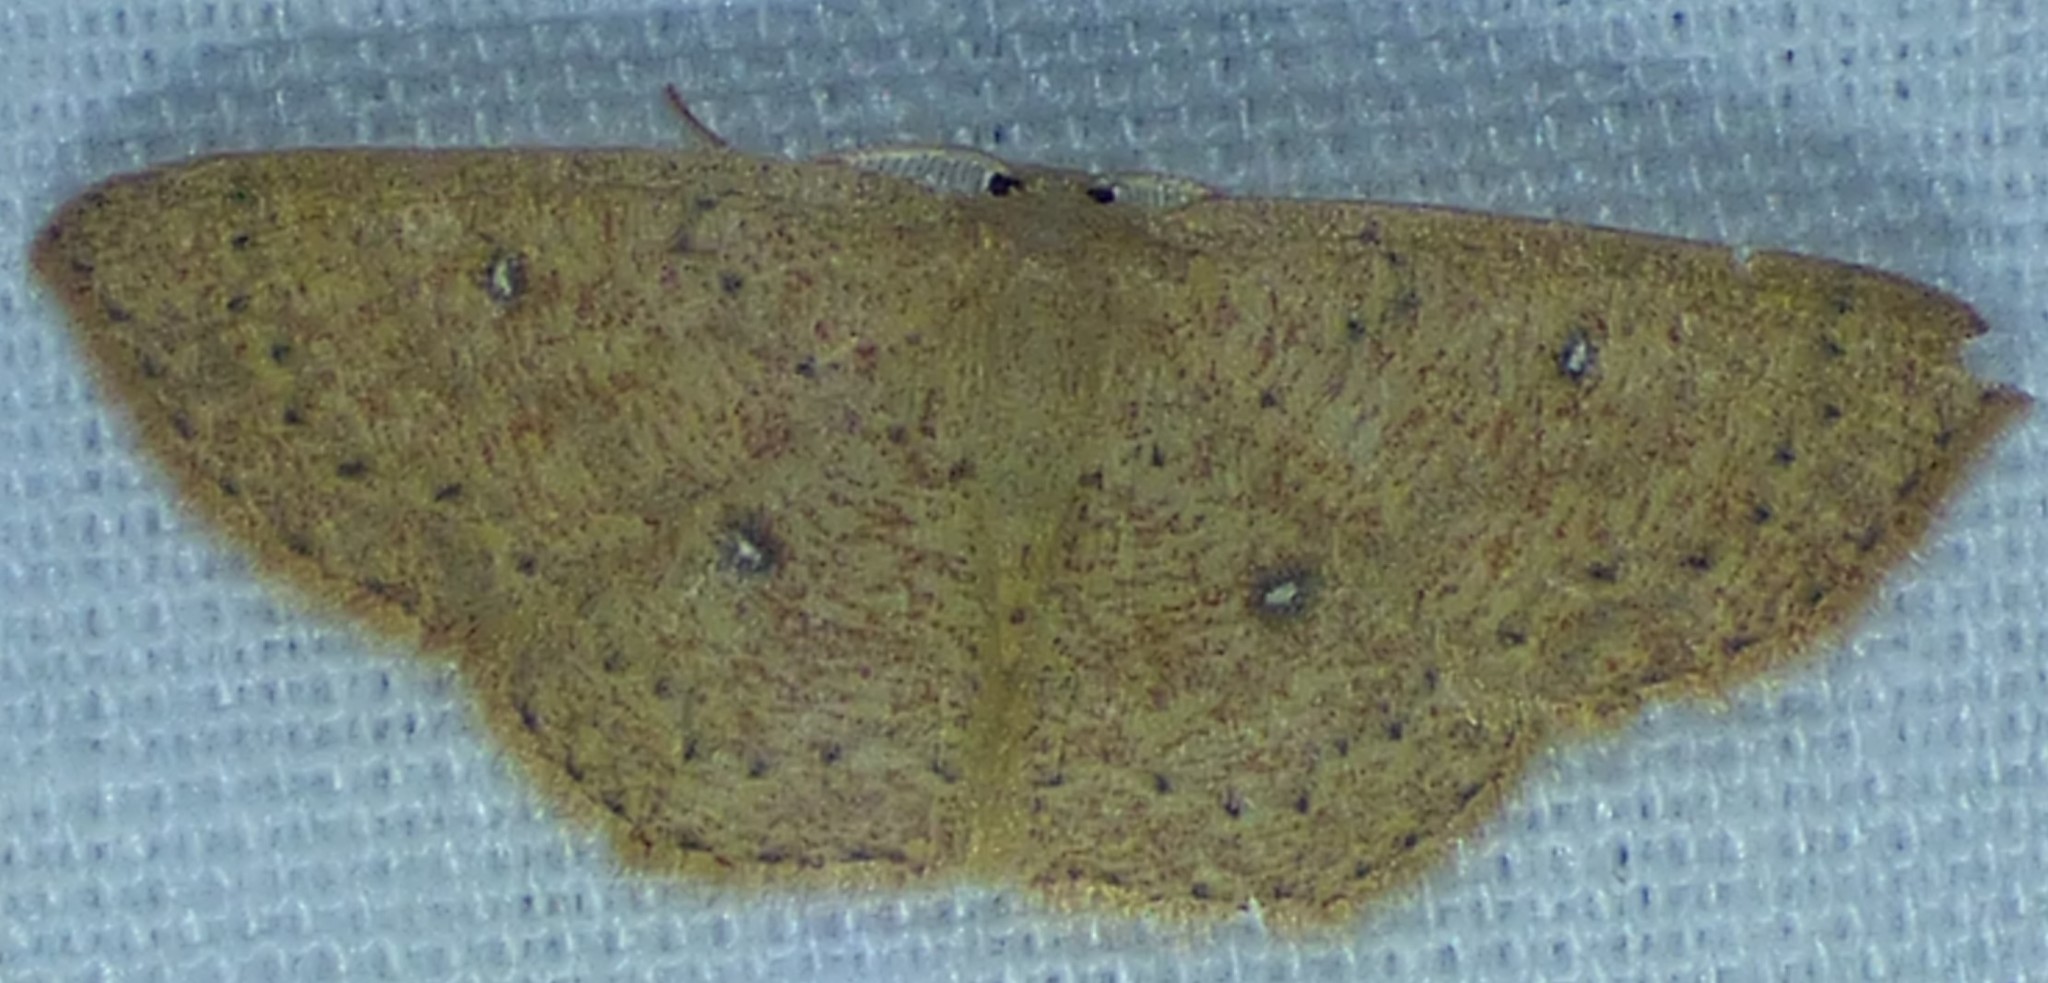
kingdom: Animalia
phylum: Arthropoda
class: Insecta
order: Lepidoptera
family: Geometridae
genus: Cyclophora
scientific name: Cyclophora packardi
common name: Packard's wave
